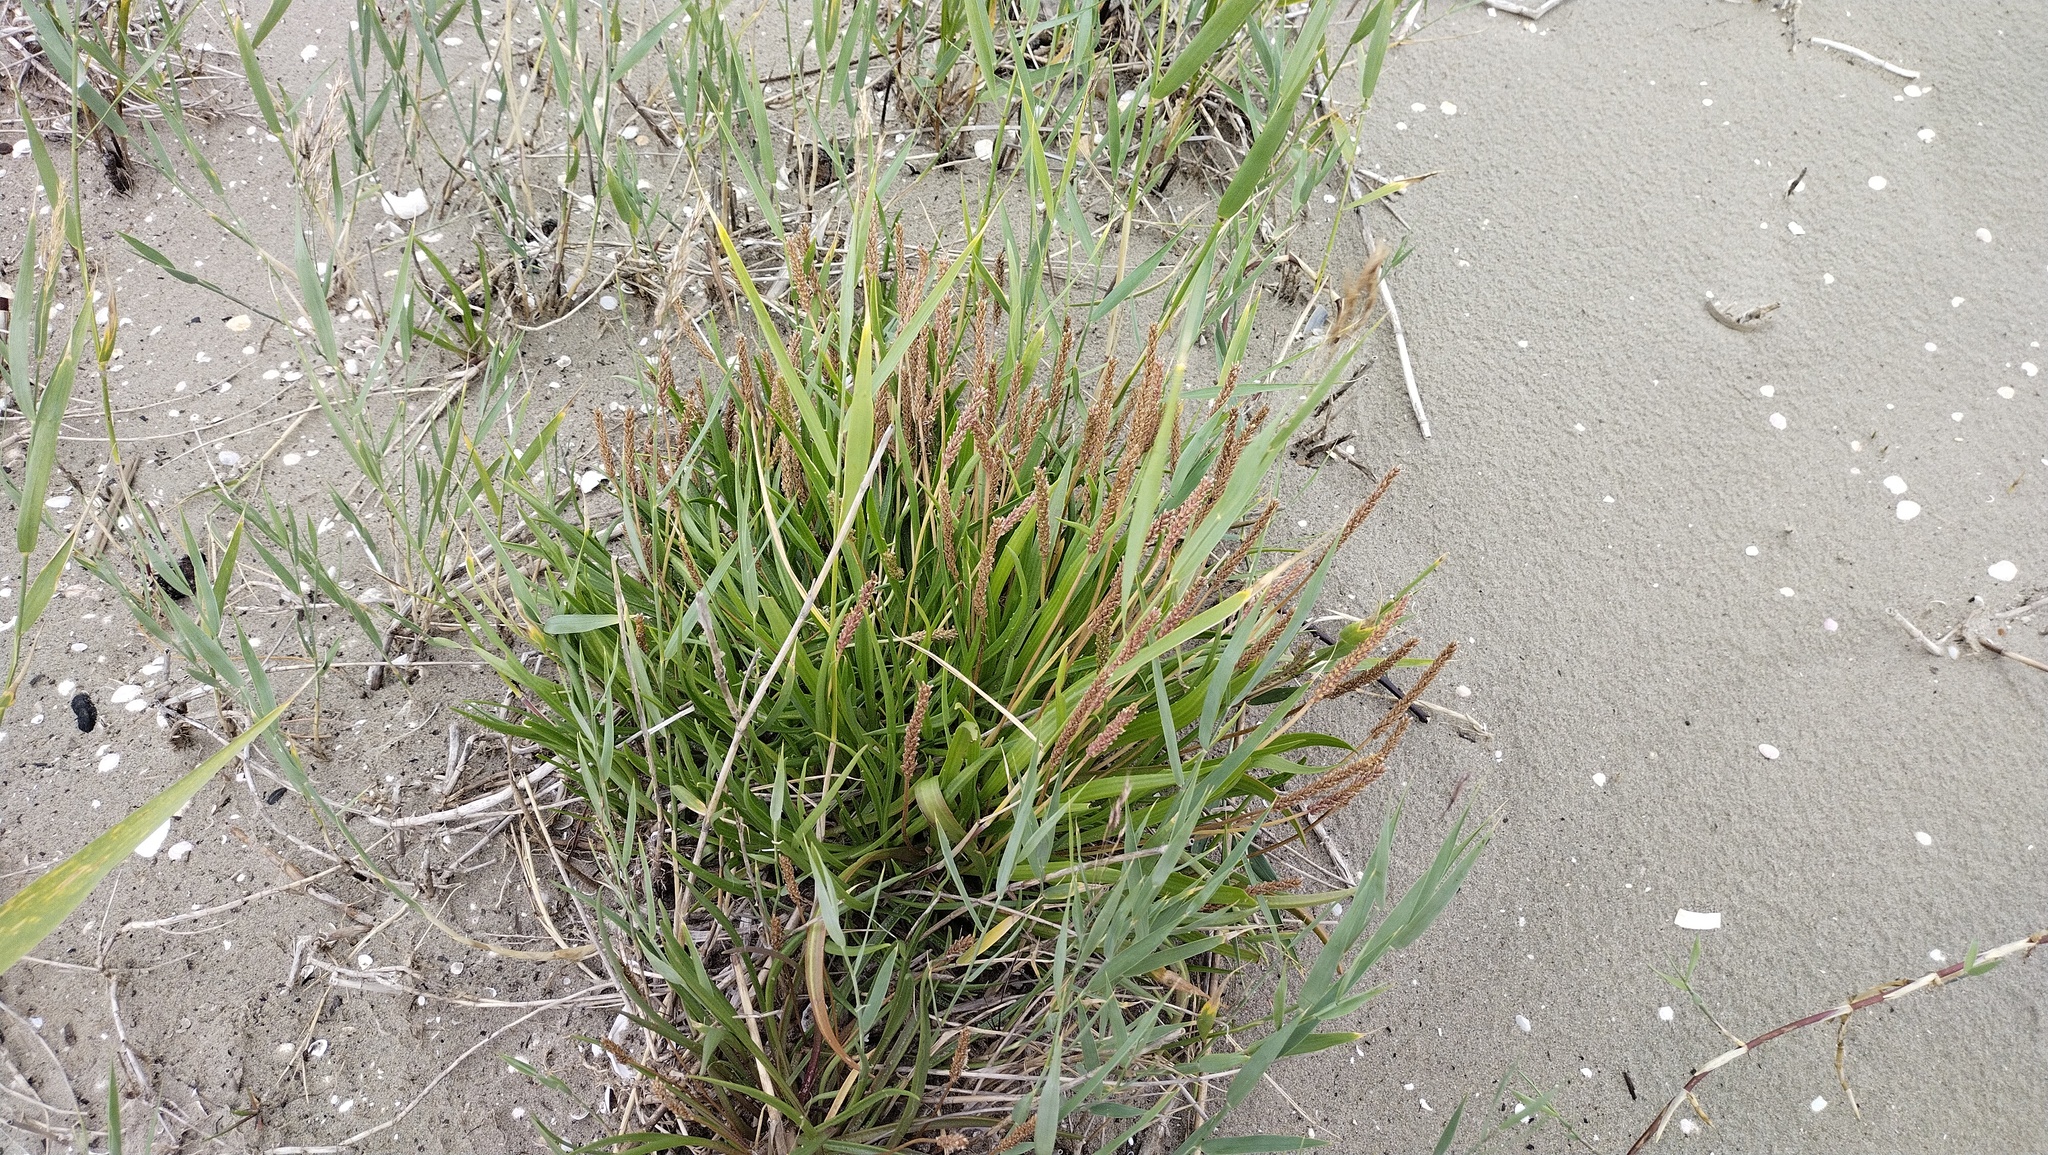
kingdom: Plantae
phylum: Tracheophyta
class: Magnoliopsida
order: Lamiales
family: Plantaginaceae
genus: Plantago
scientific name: Plantago maritima
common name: Sea plantain
